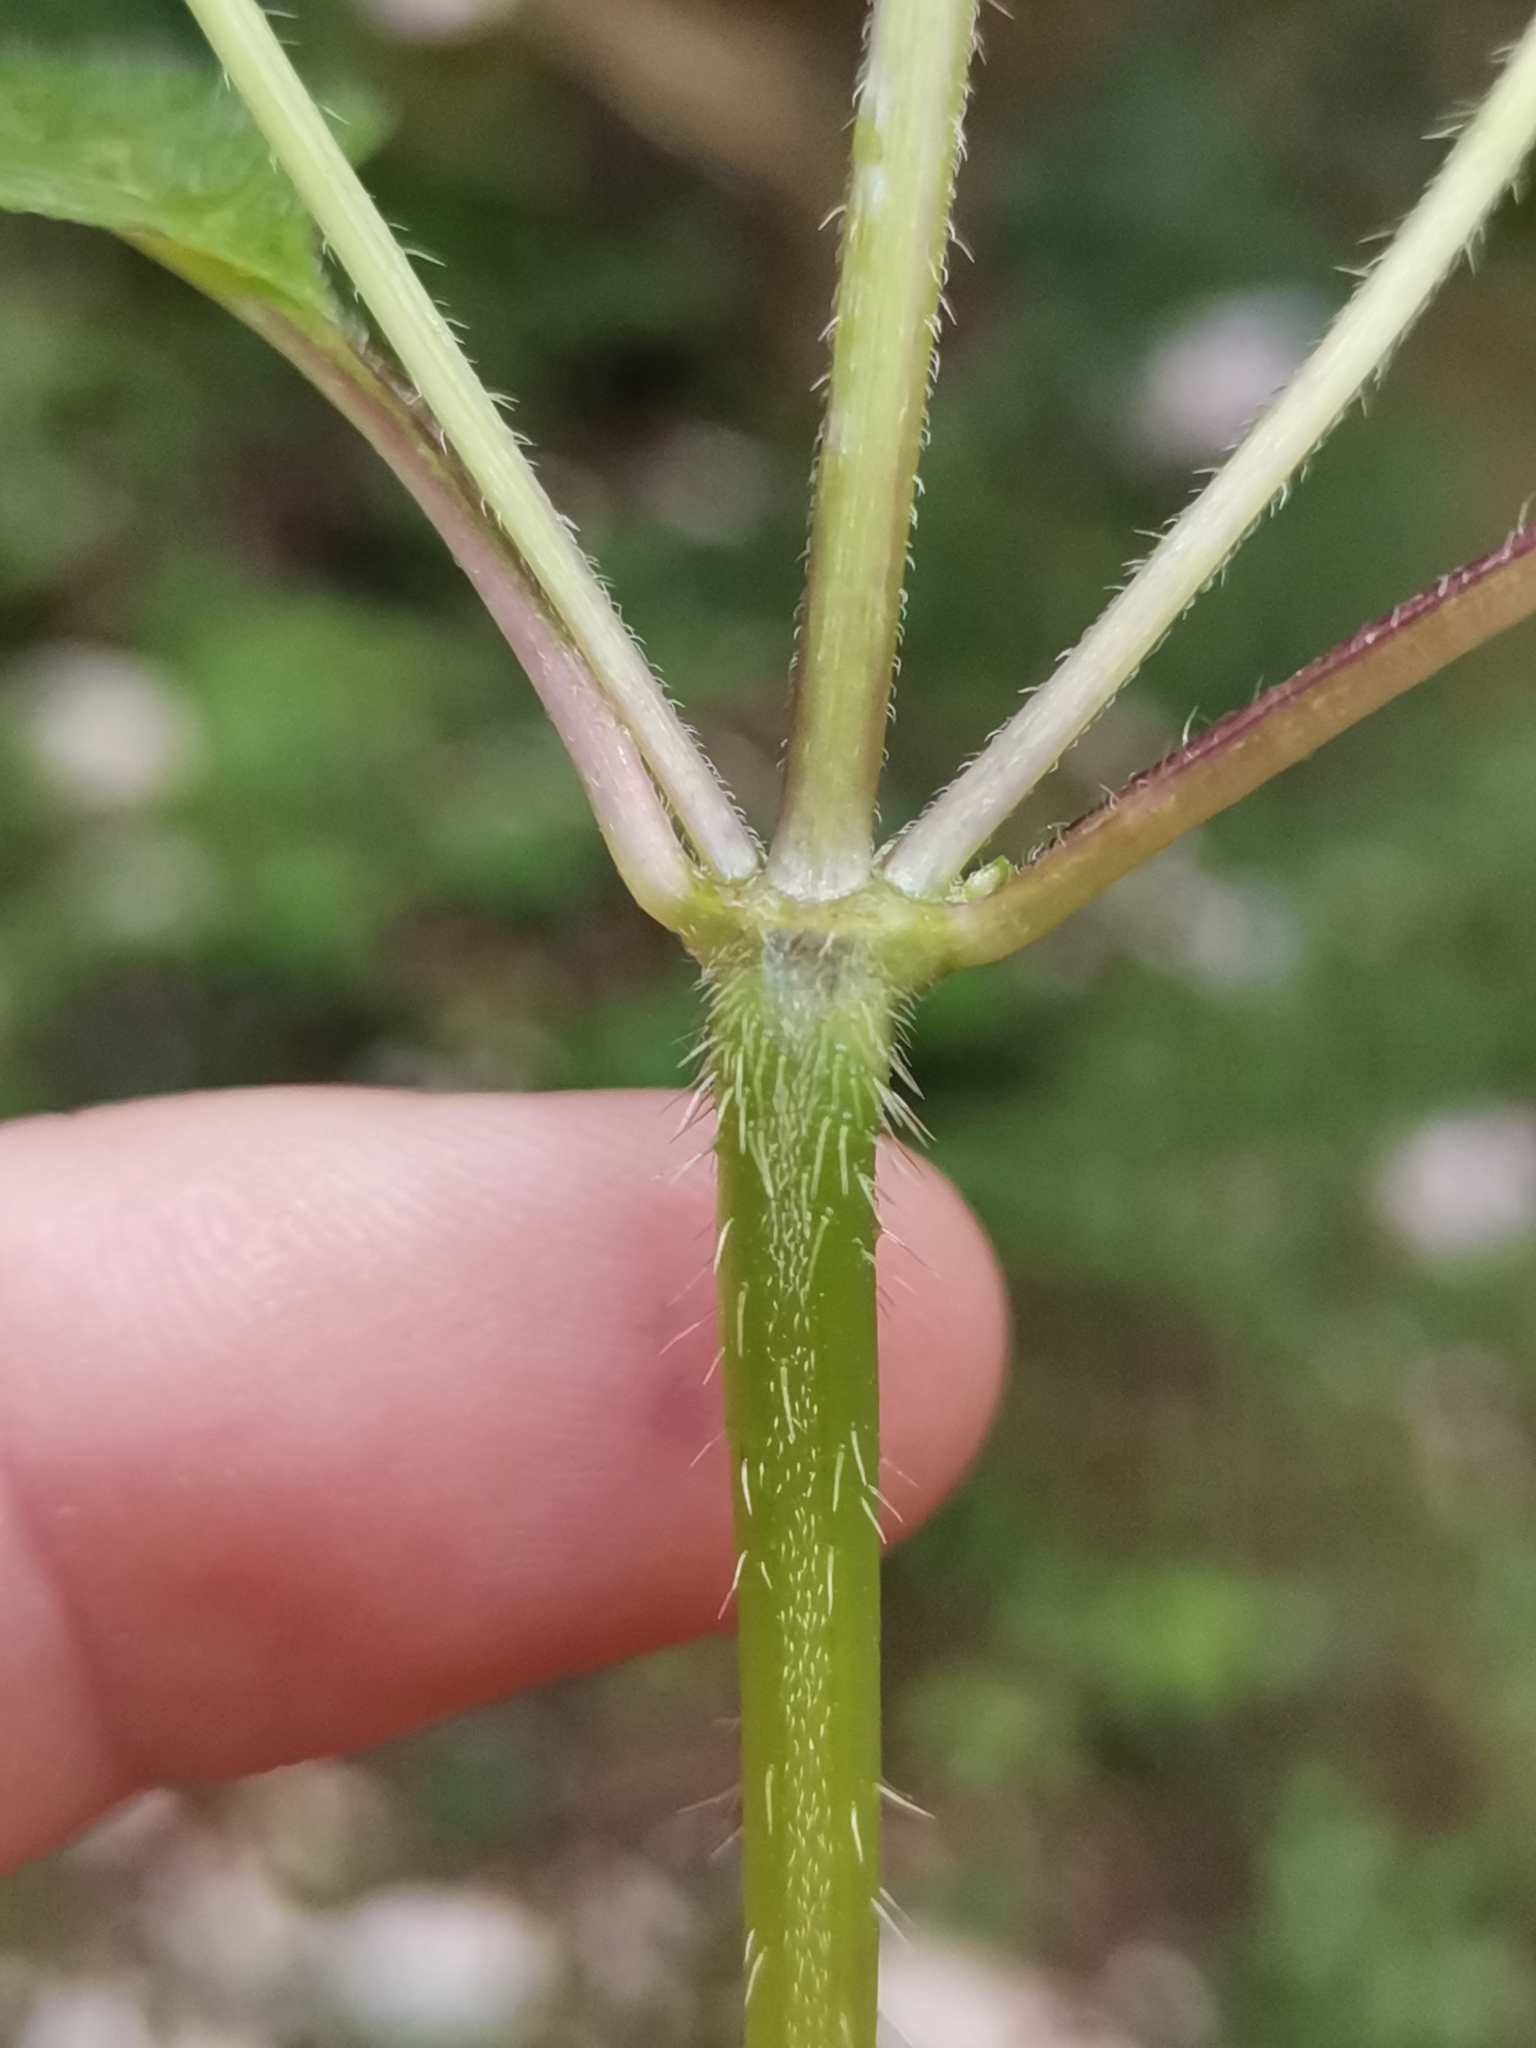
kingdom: Plantae
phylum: Tracheophyta
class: Magnoliopsida
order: Lamiales
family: Lamiaceae
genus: Galeopsis
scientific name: Galeopsis bifida
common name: Bifid hemp-nettle
